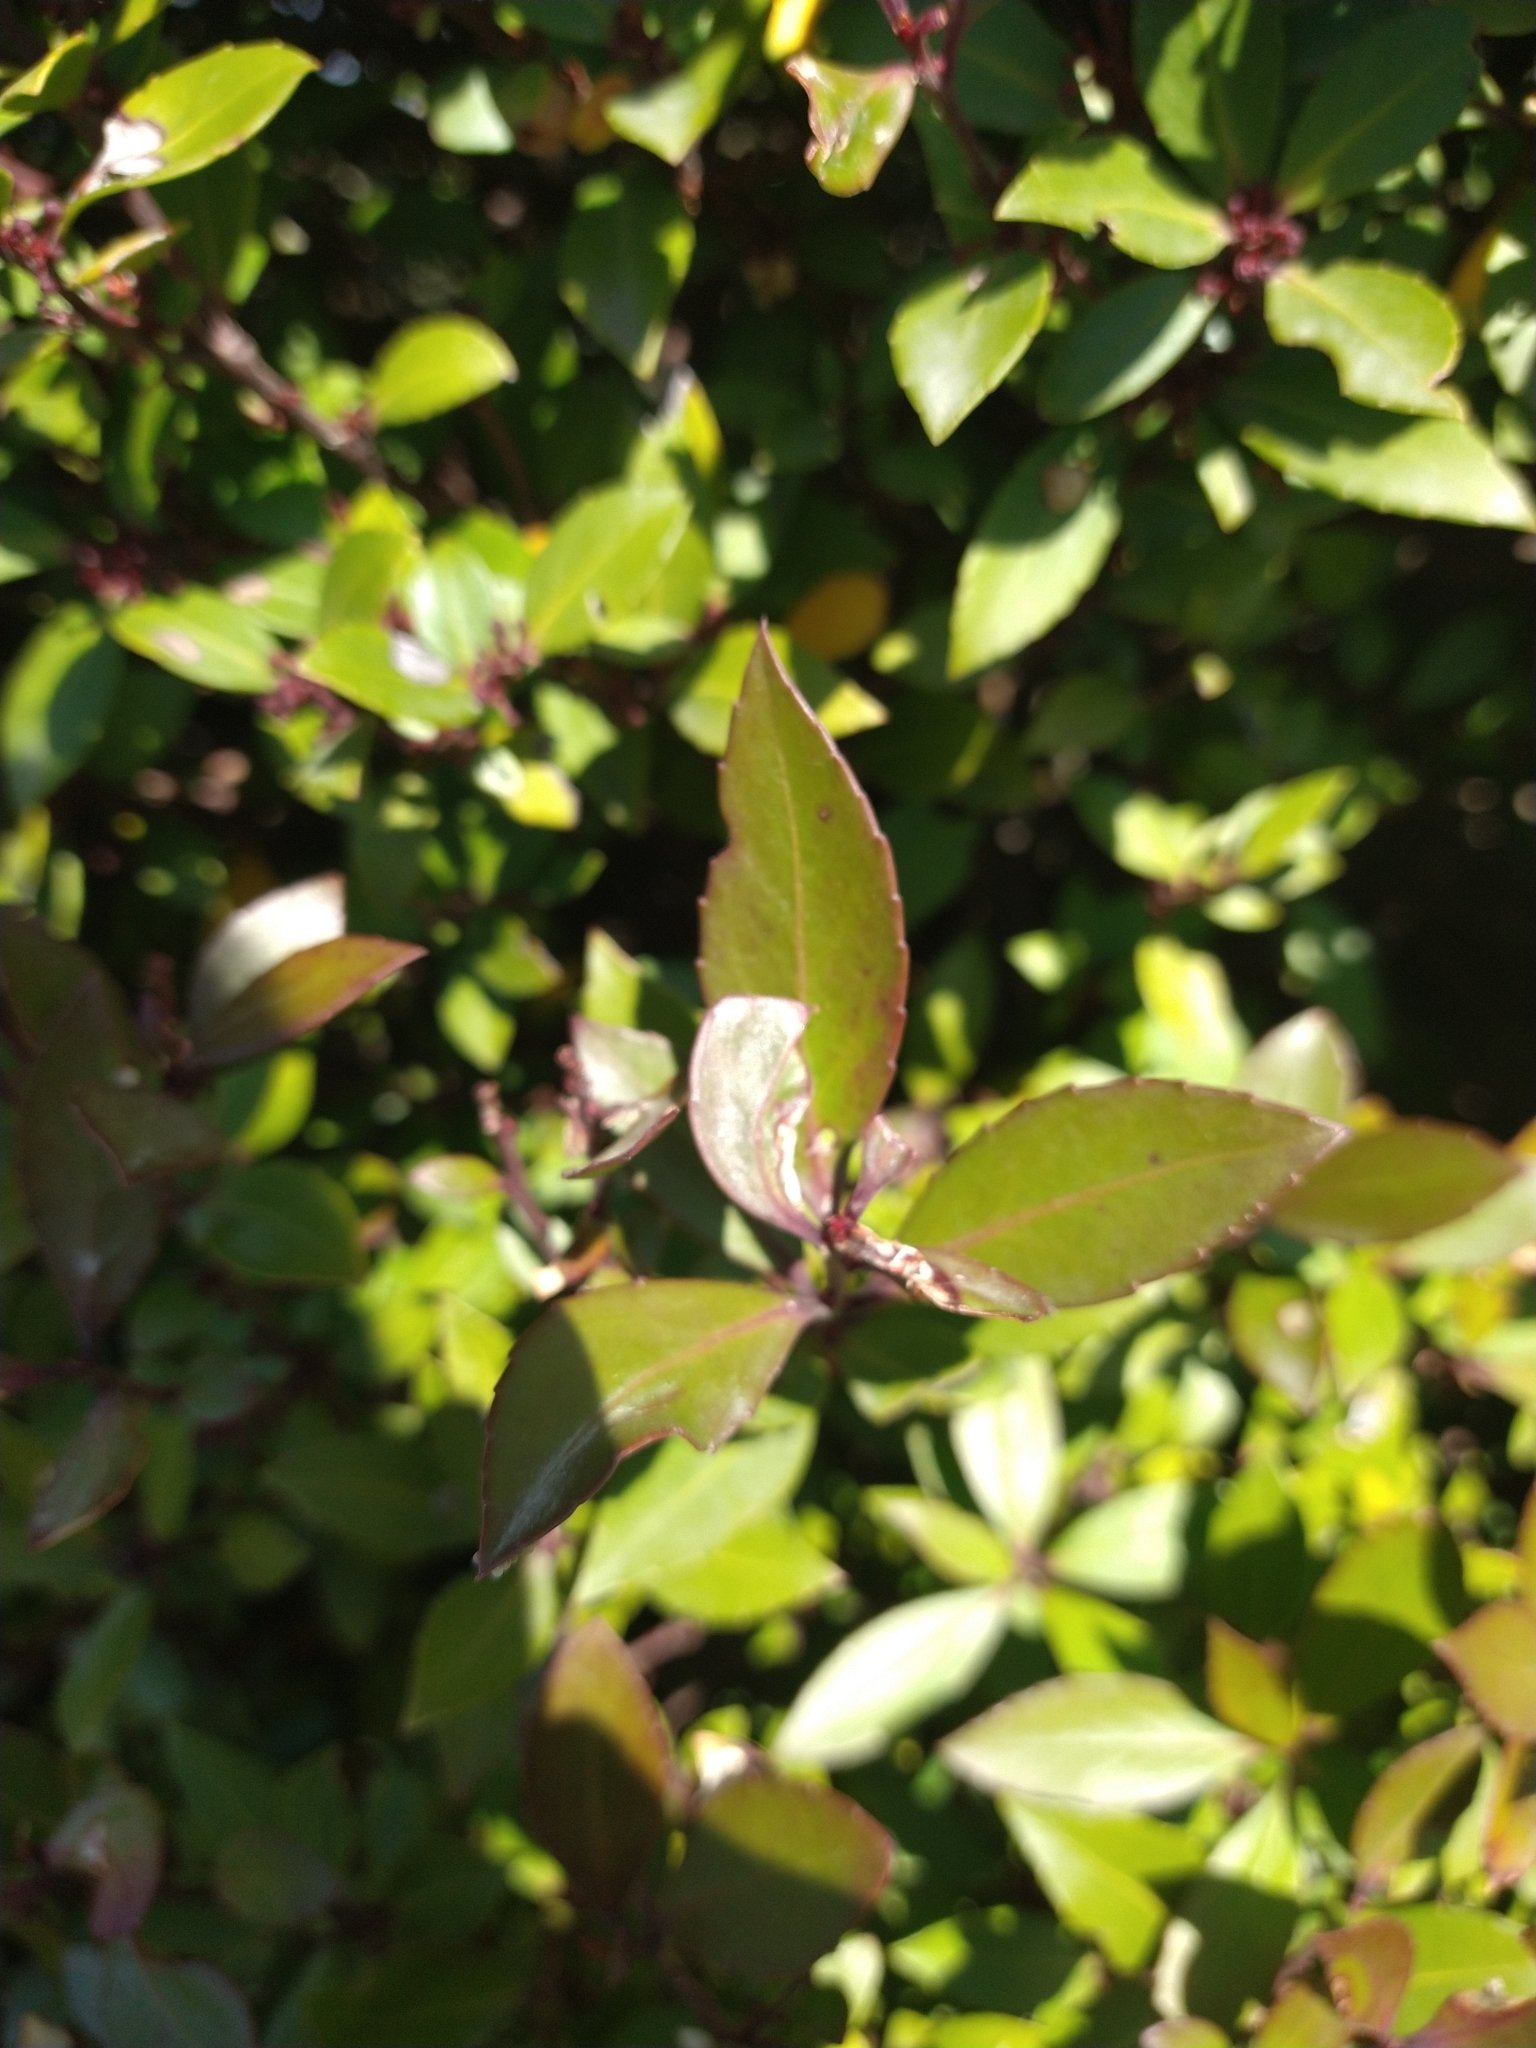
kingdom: Plantae
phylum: Tracheophyta
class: Magnoliopsida
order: Celastrales
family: Celastraceae
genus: Maytenus
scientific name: Maytenus magellanica
